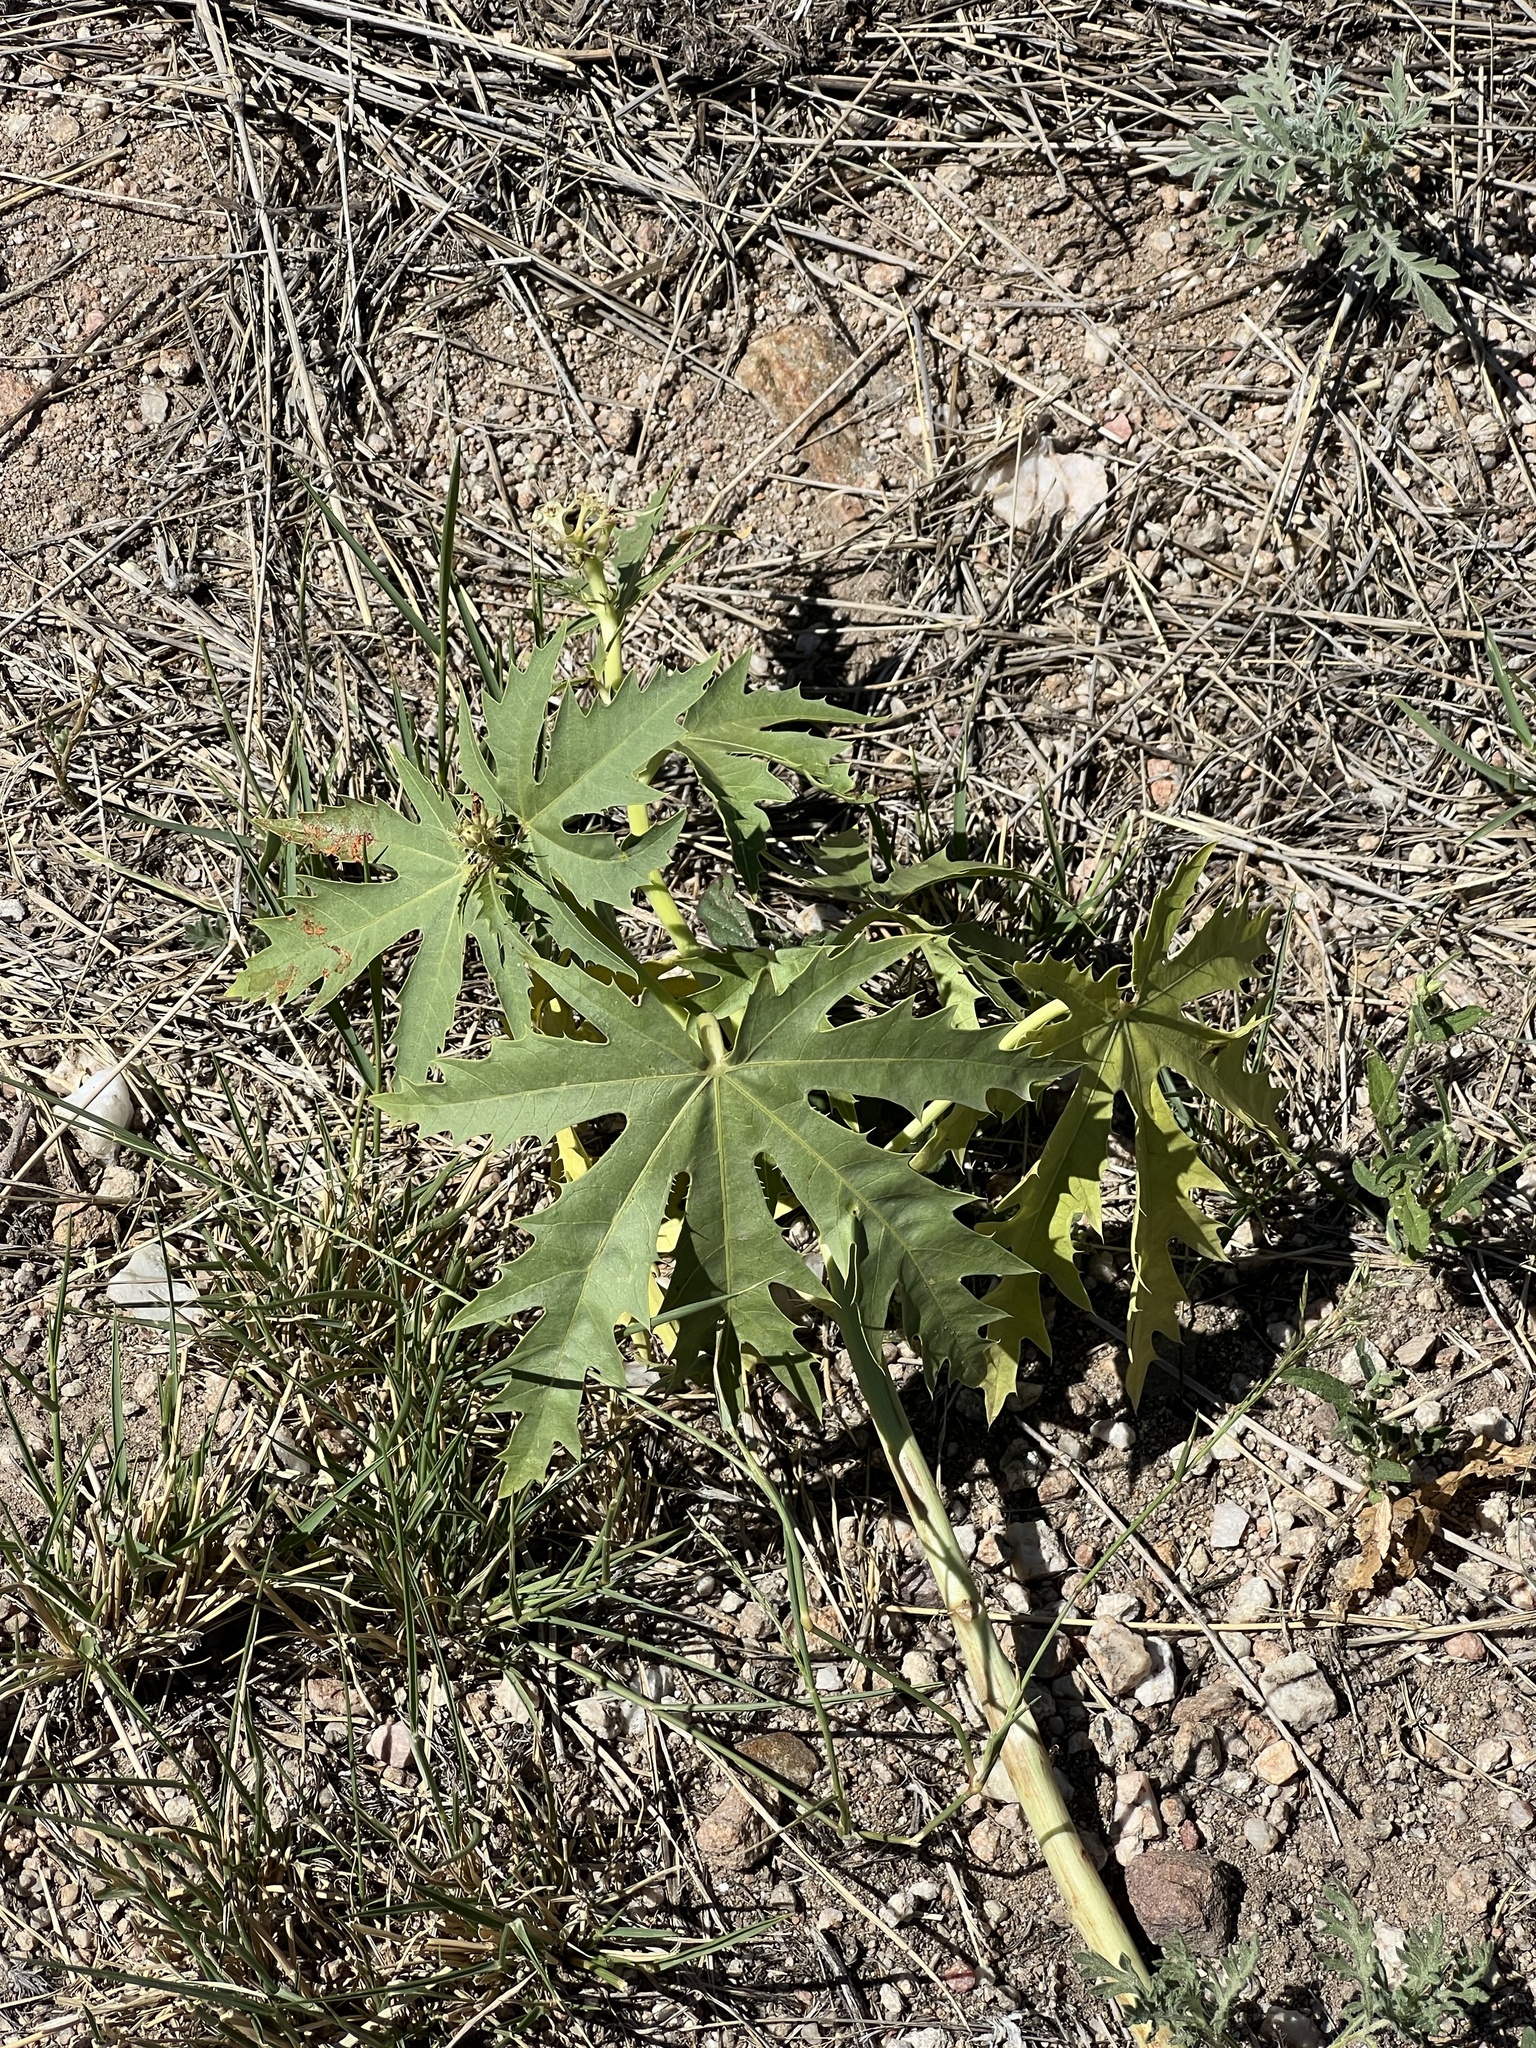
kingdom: Plantae
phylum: Tracheophyta
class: Magnoliopsida
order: Malpighiales
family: Euphorbiaceae
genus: Jatropha
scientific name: Jatropha macrorhiza
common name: Ragged nettlespurge
